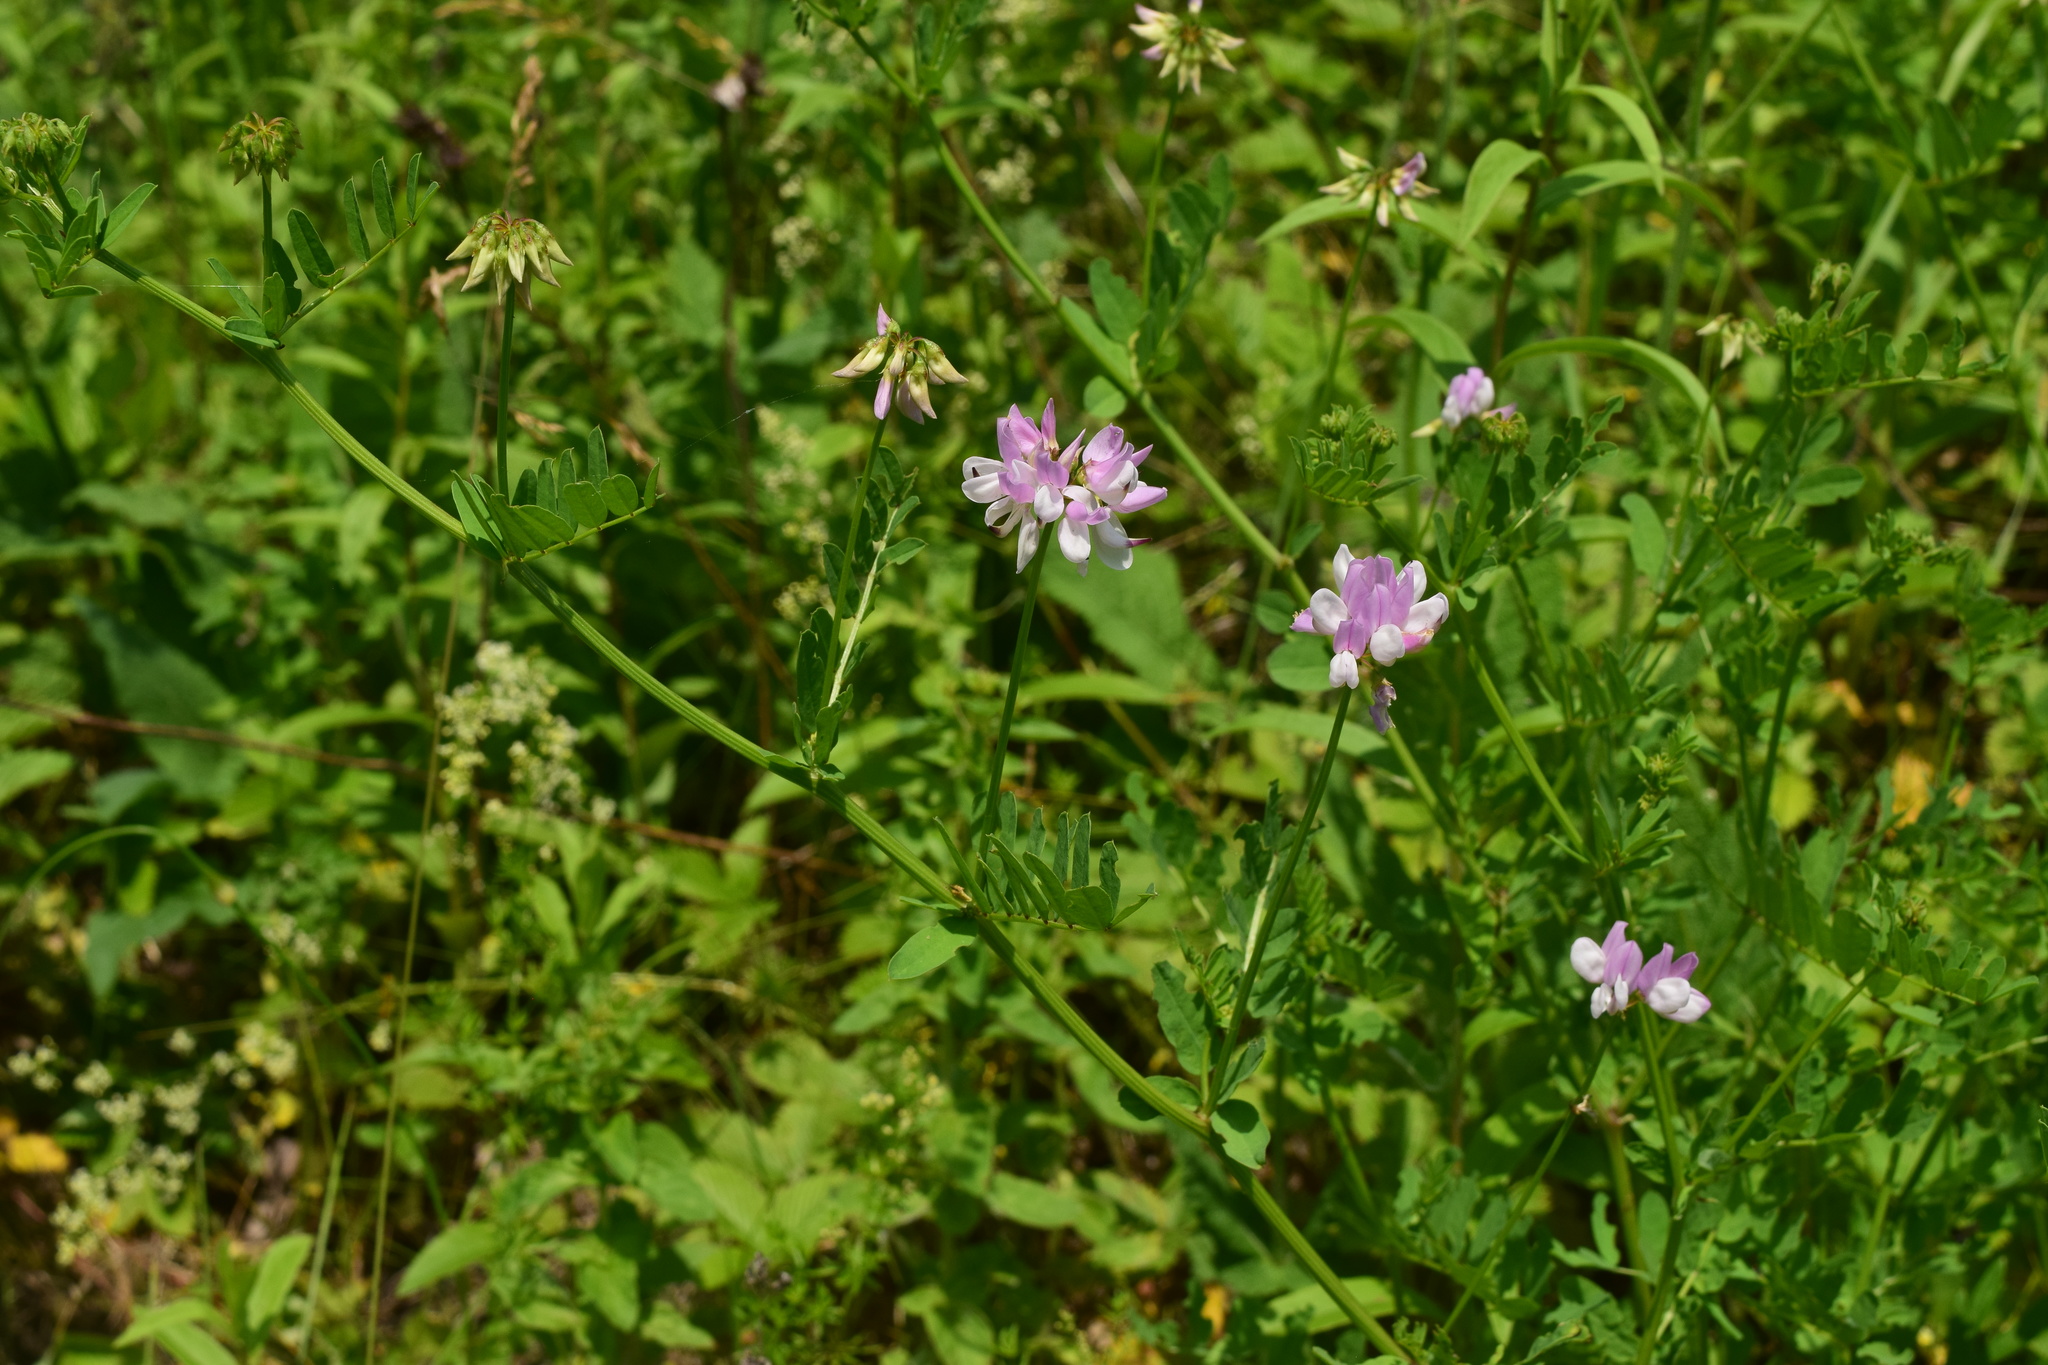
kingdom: Plantae
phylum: Tracheophyta
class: Magnoliopsida
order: Fabales
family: Fabaceae
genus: Coronilla
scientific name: Coronilla varia
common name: Crownvetch
